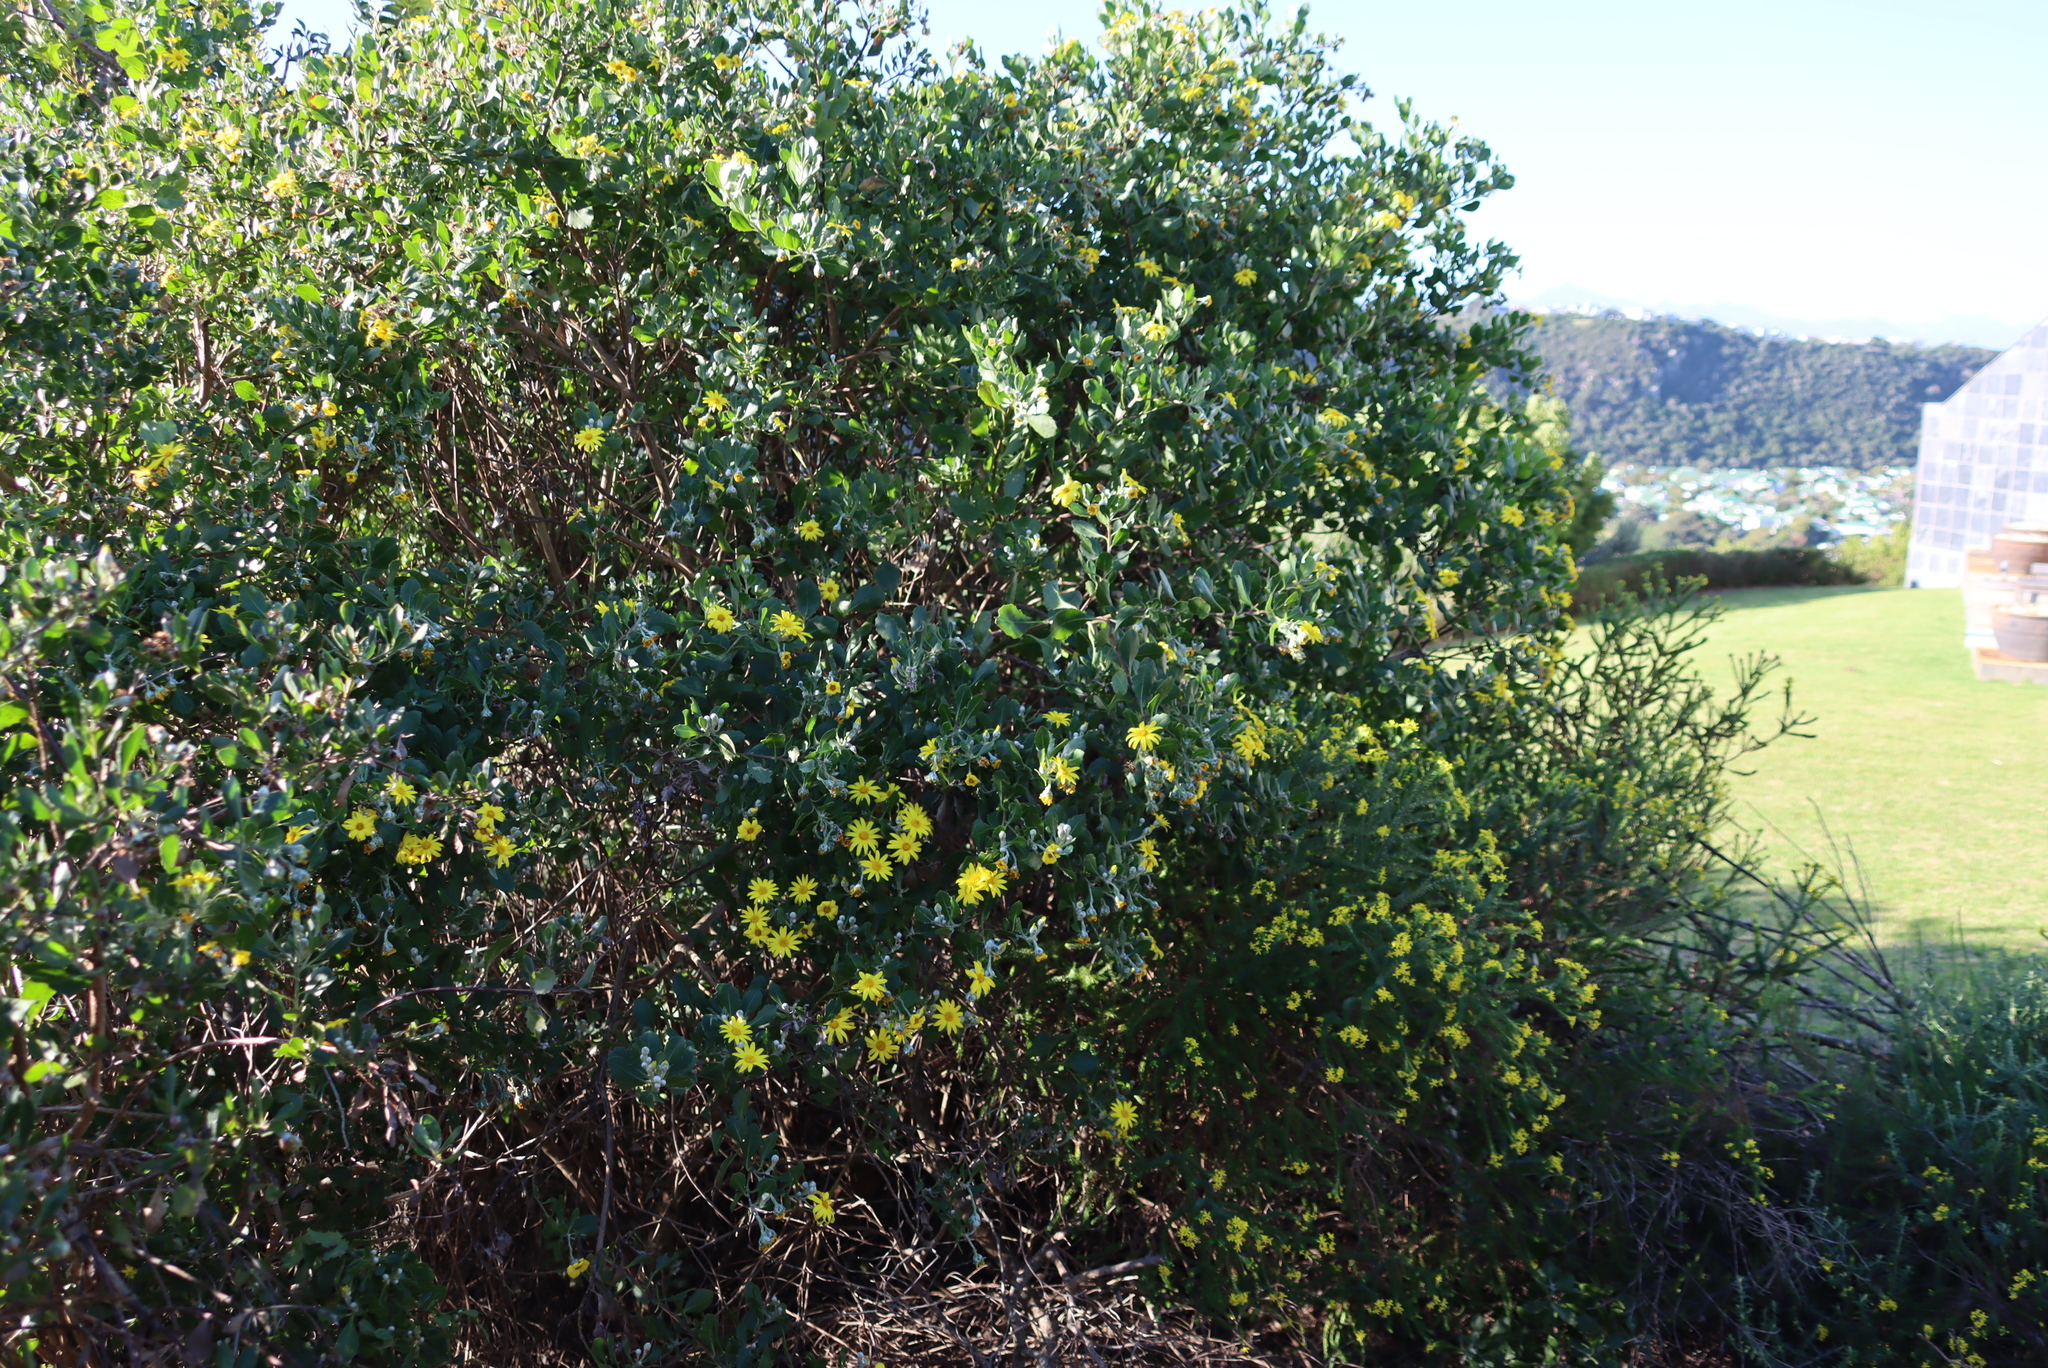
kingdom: Plantae
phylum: Tracheophyta
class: Magnoliopsida
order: Asterales
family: Asteraceae
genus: Osteospermum
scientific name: Osteospermum moniliferum
